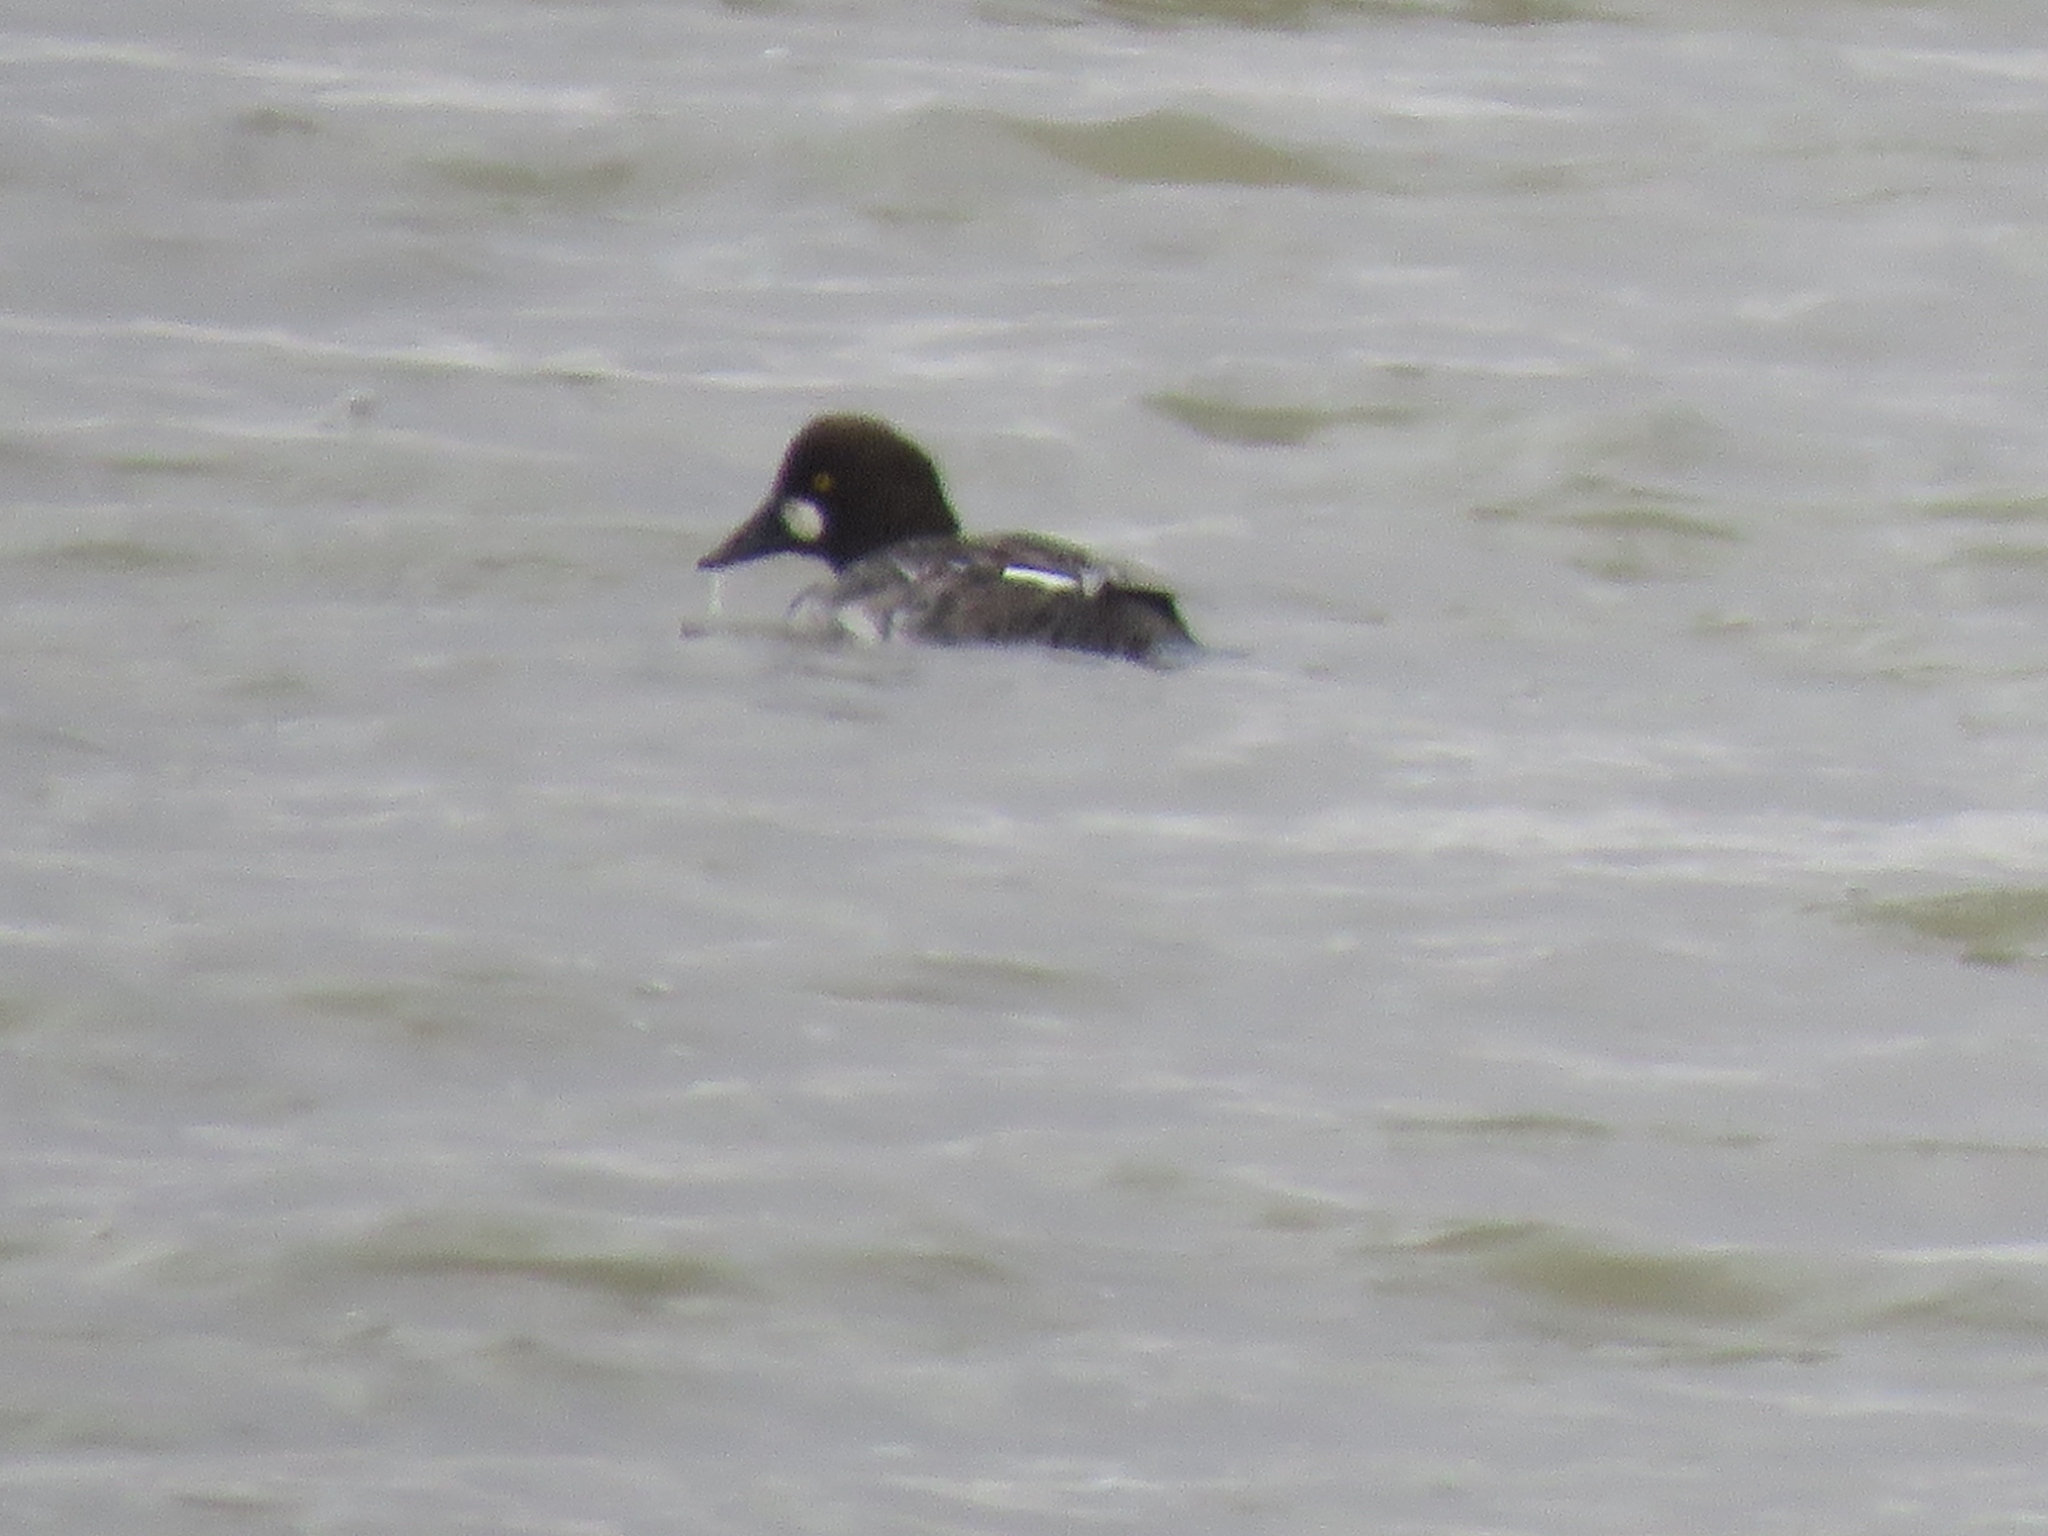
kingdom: Animalia
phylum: Chordata
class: Aves
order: Anseriformes
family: Anatidae
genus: Bucephala
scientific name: Bucephala clangula
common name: Common goldeneye
